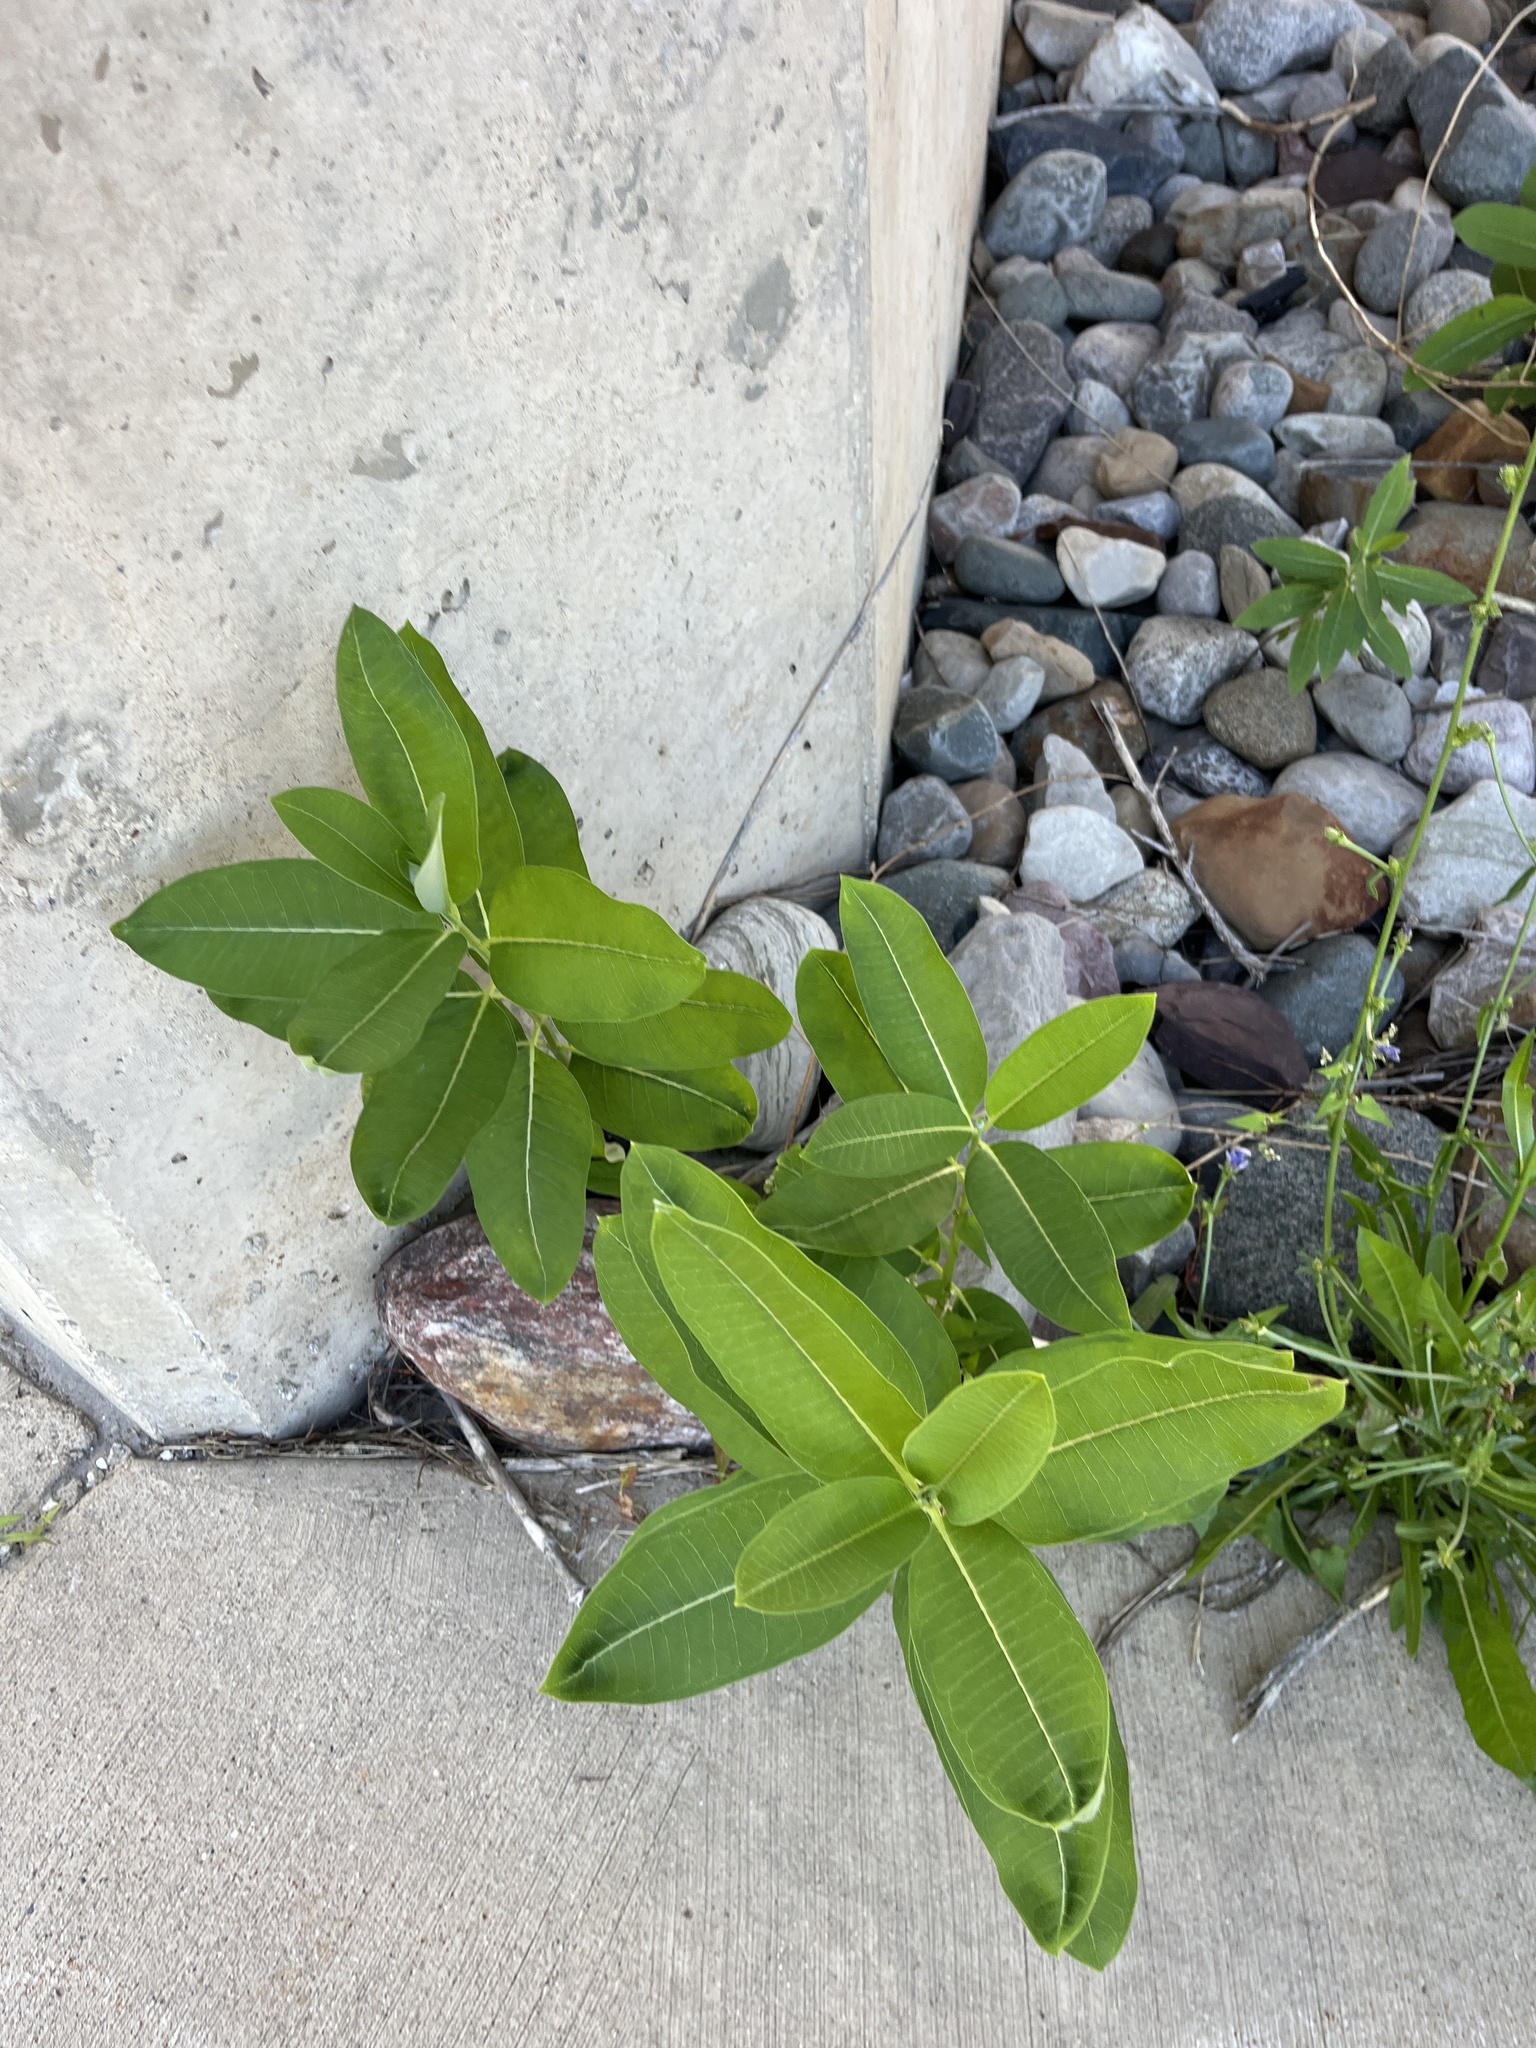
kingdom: Plantae
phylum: Tracheophyta
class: Magnoliopsida
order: Gentianales
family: Apocynaceae
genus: Asclepias
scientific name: Asclepias syriaca
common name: Common milkweed
